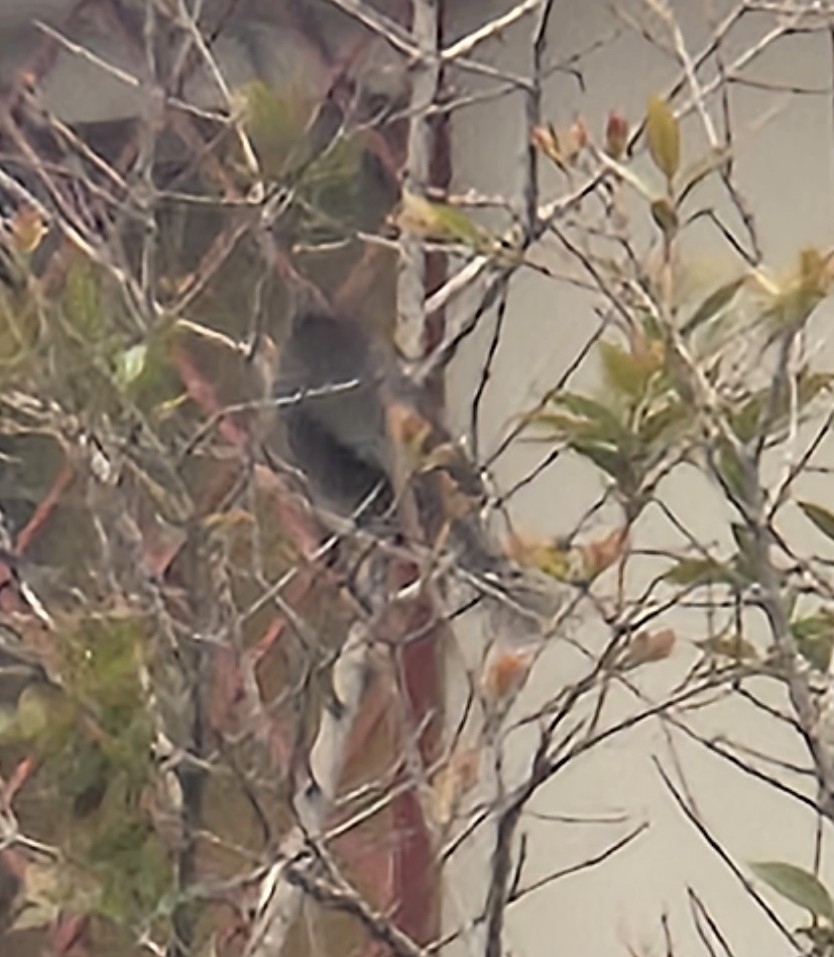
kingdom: Animalia
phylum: Chordata
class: Aves
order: Passeriformes
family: Aegithalidae
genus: Psaltriparus
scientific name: Psaltriparus minimus
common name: American bushtit
